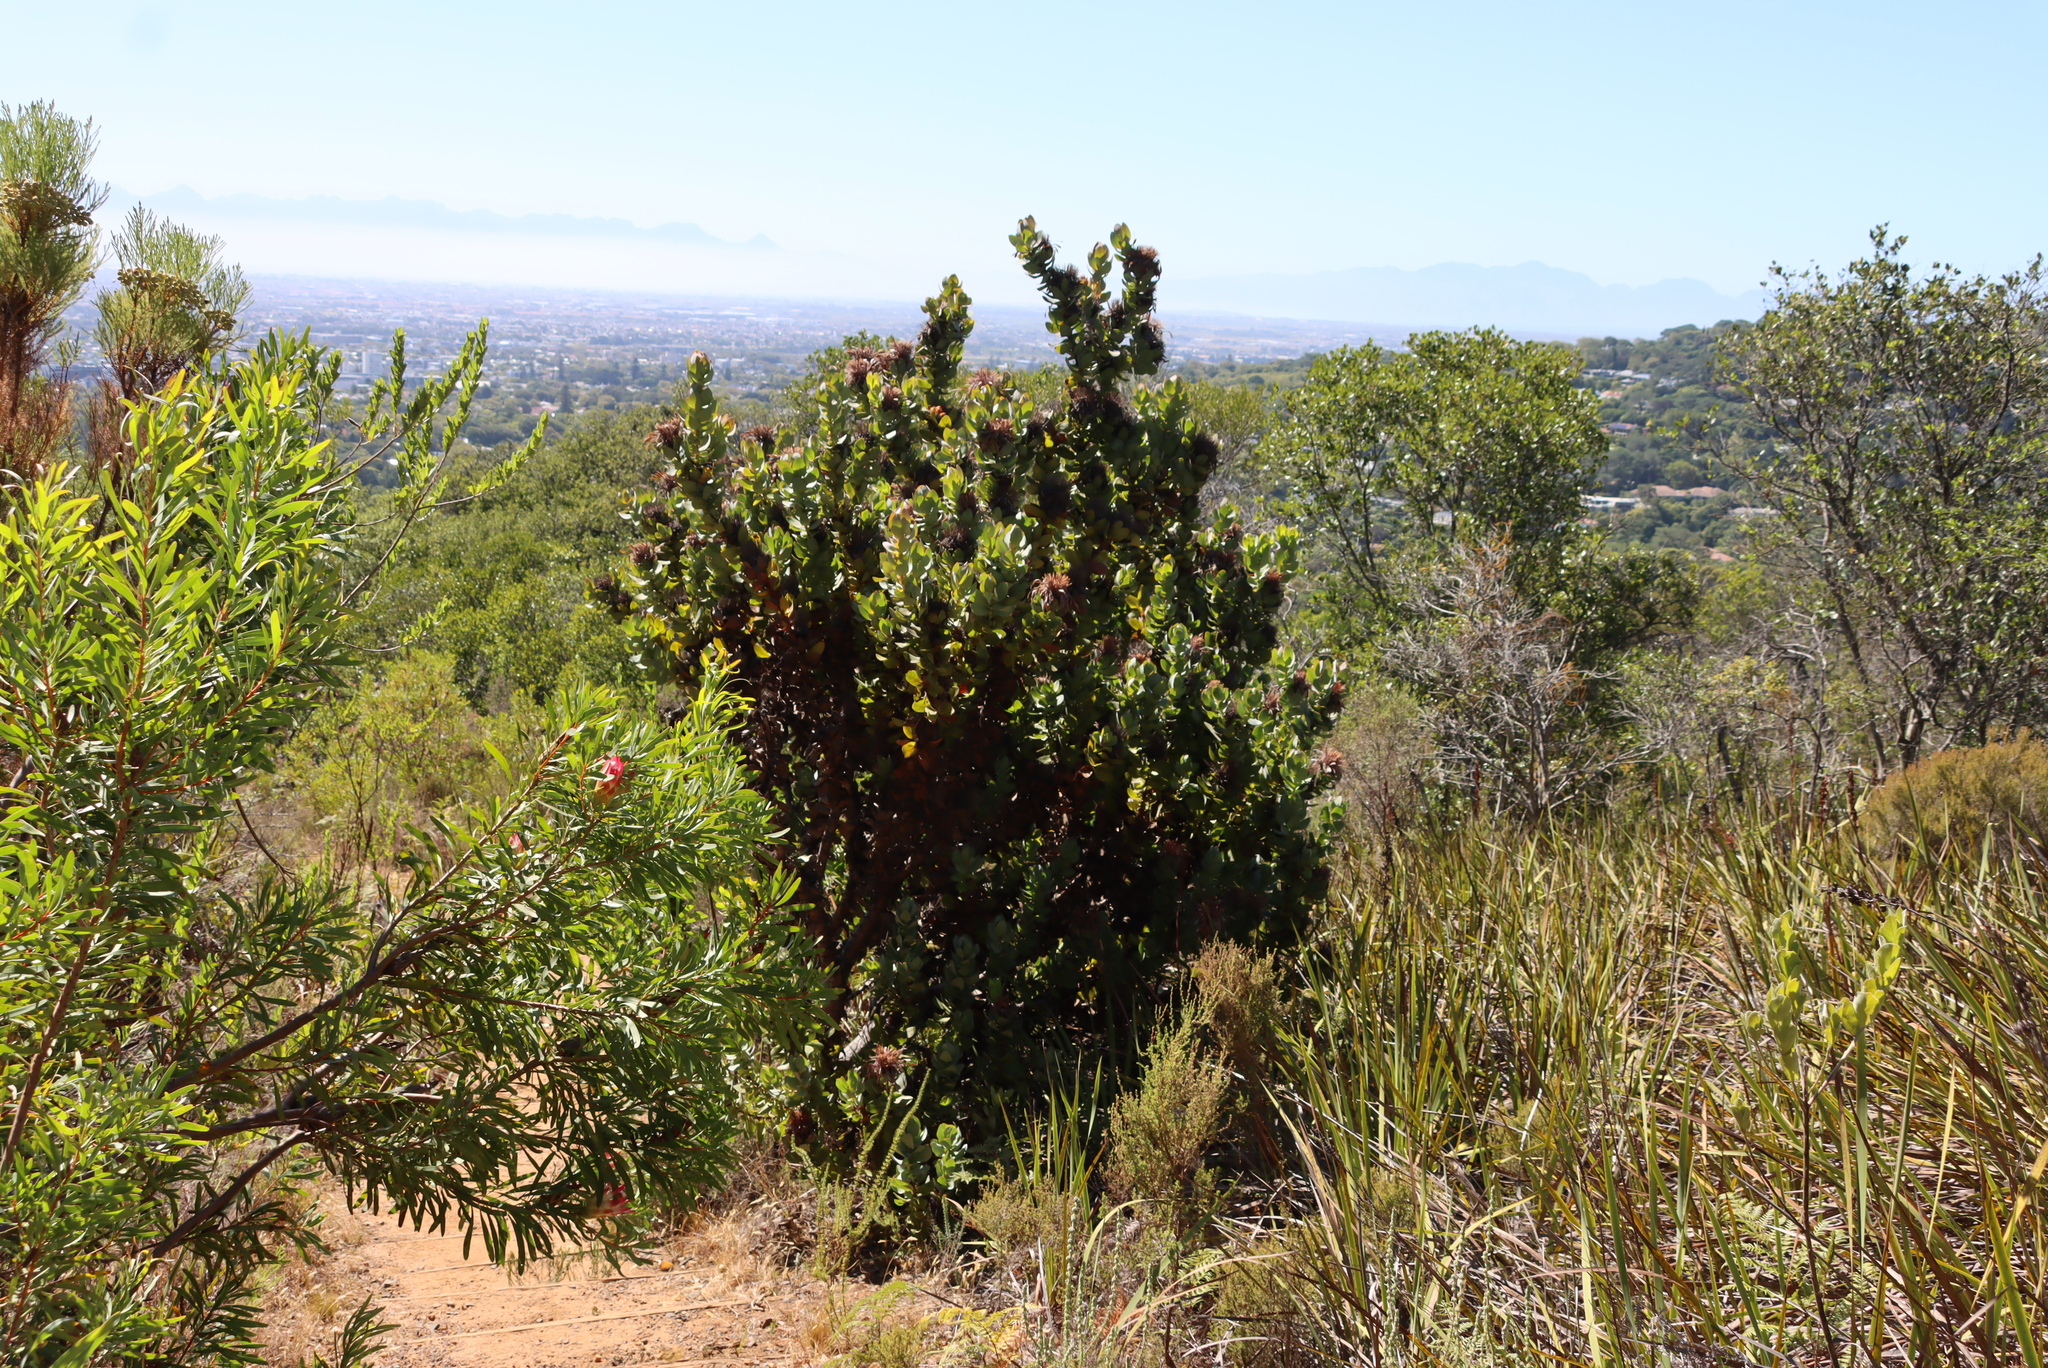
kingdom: Plantae
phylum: Tracheophyta
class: Magnoliopsida
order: Proteales
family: Proteaceae
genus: Protea
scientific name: Protea eximia
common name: Broad-leaved sugarbush
